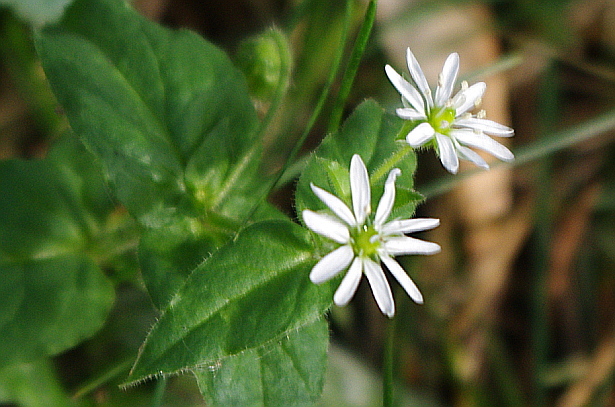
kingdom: Plantae
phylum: Tracheophyta
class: Magnoliopsida
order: Caryophyllales
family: Caryophyllaceae
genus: Stellaria
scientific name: Stellaria aquatica
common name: Water chickweed
